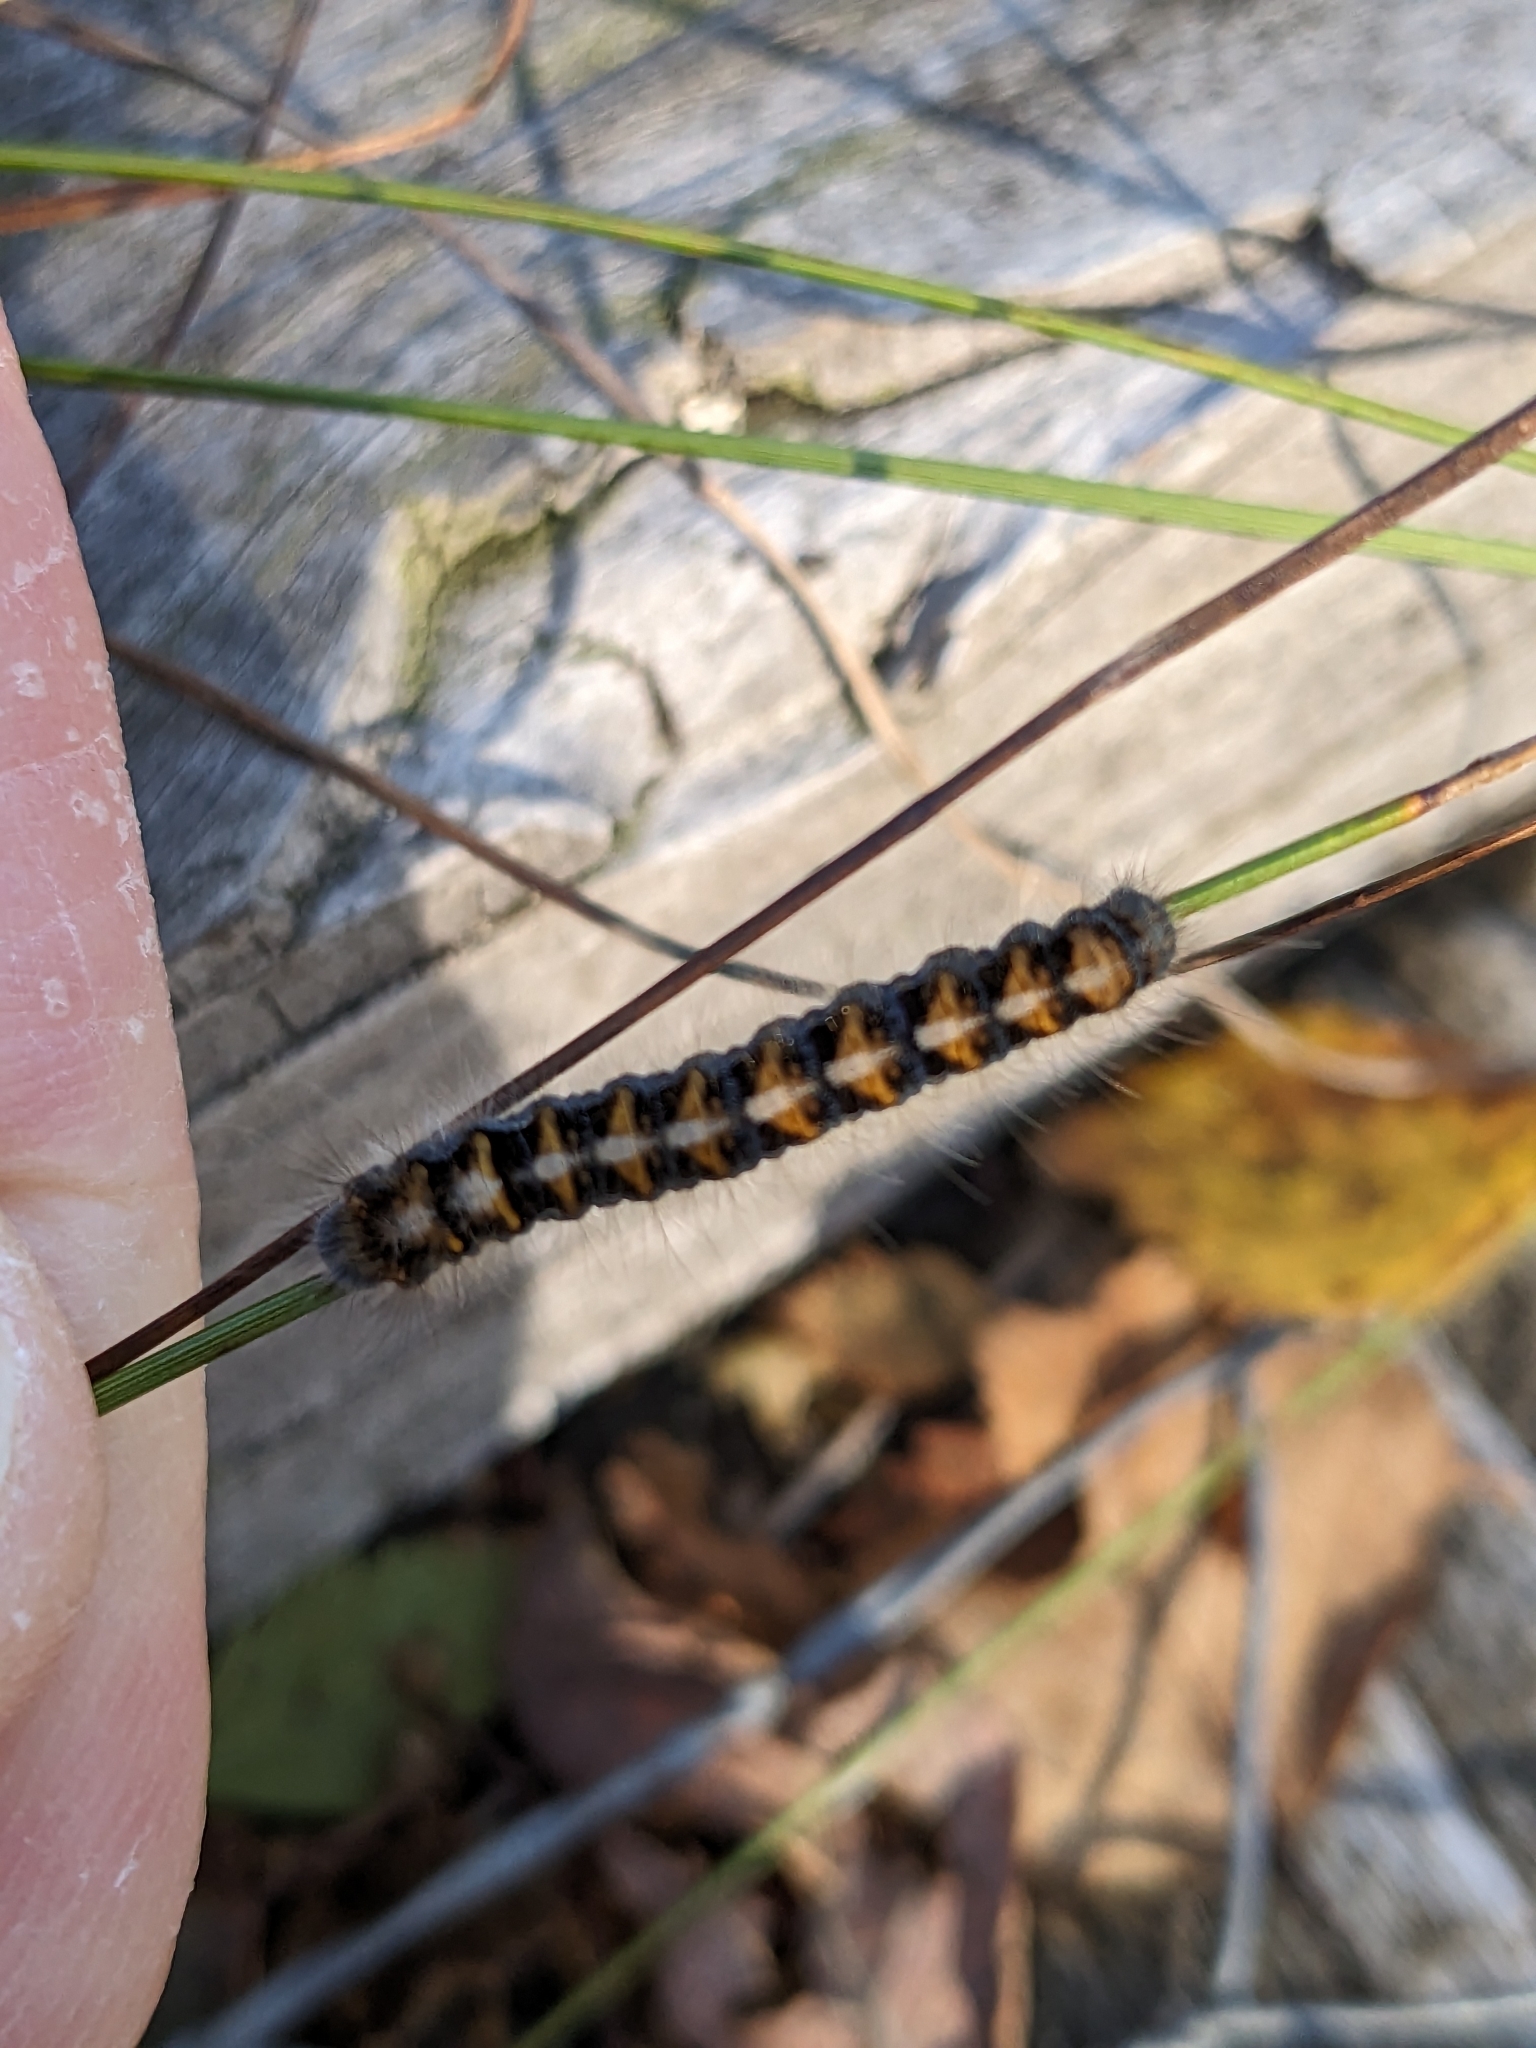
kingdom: Animalia
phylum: Arthropoda
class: Insecta
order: Lepidoptera
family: Lasiocampidae
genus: Lasiocampa
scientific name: Lasiocampa quercus
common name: Oak eggar
